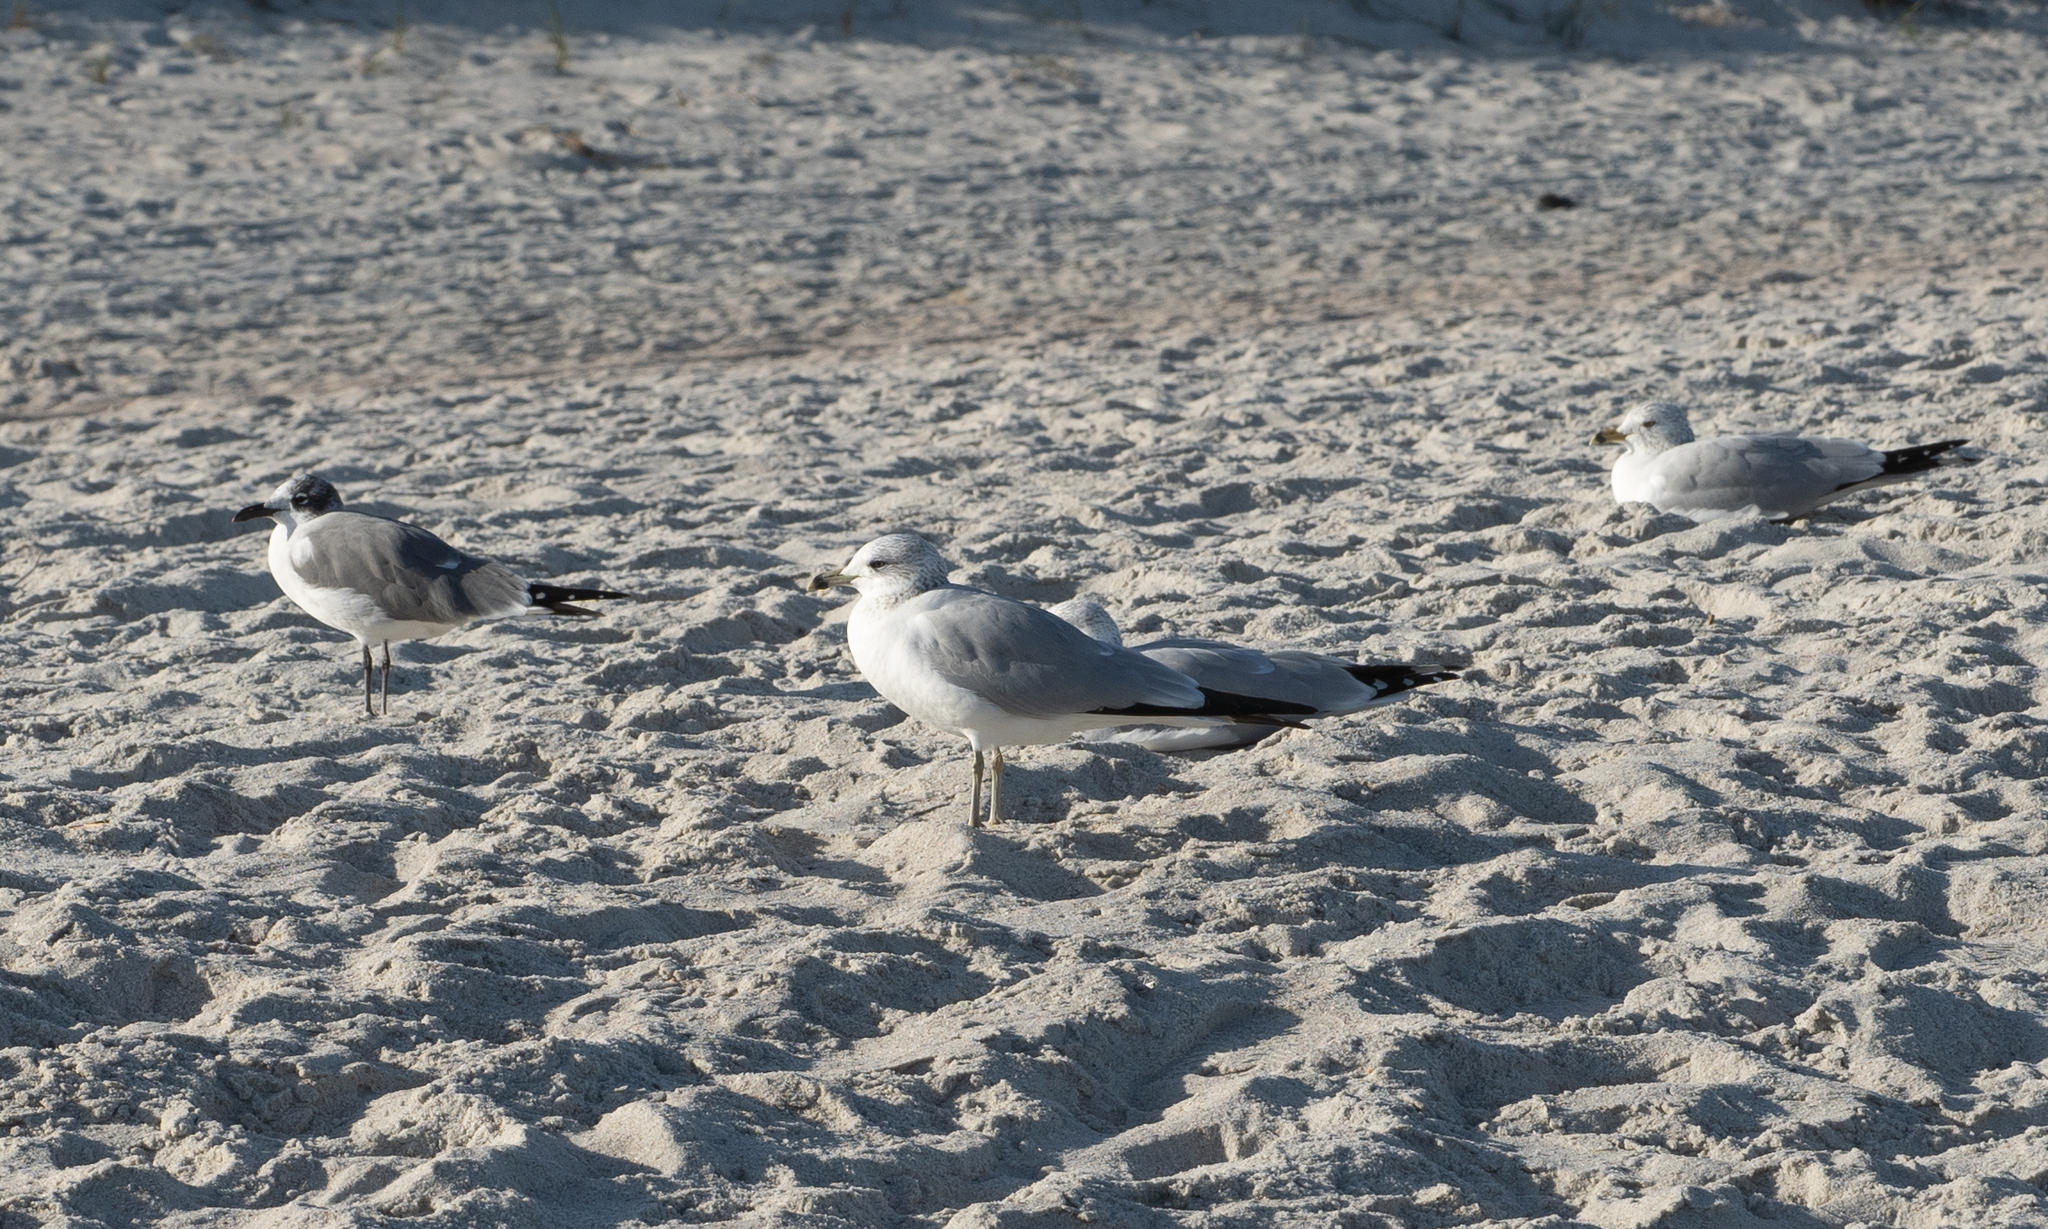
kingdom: Animalia
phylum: Chordata
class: Aves
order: Charadriiformes
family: Laridae
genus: Larus
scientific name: Larus delawarensis
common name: Ring-billed gull
